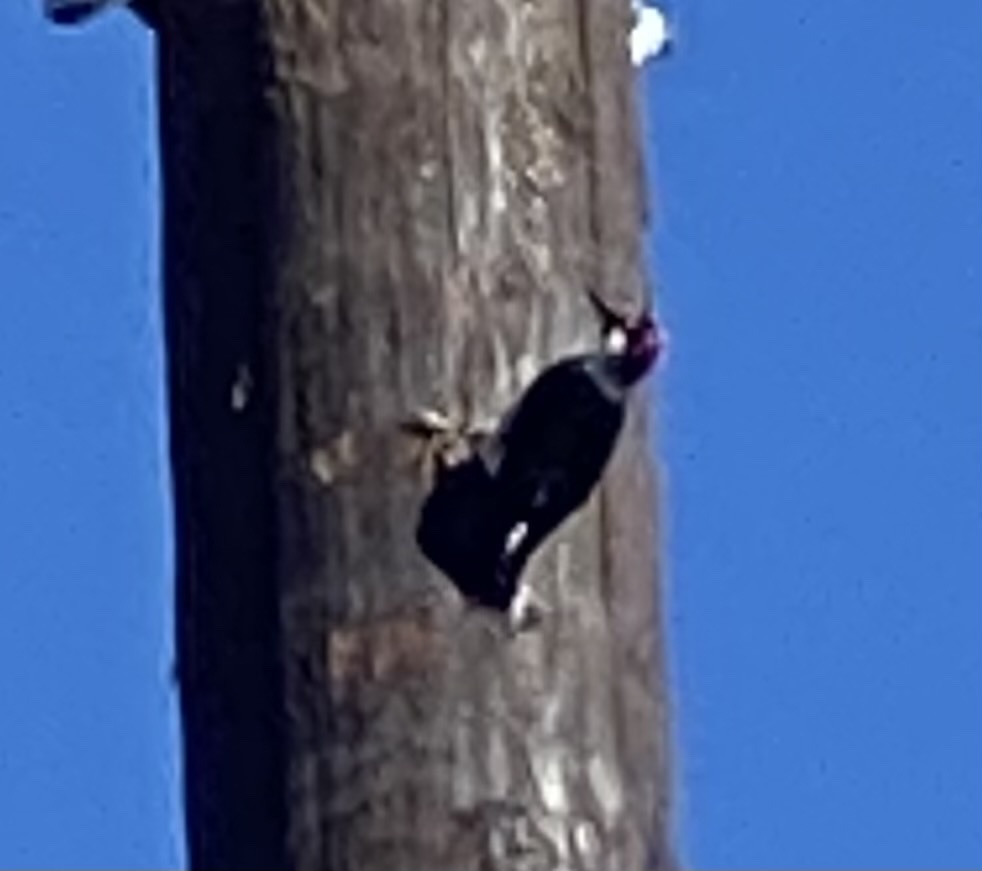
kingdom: Animalia
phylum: Chordata
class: Aves
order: Piciformes
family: Picidae
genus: Melanerpes
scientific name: Melanerpes formicivorus
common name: Acorn woodpecker
